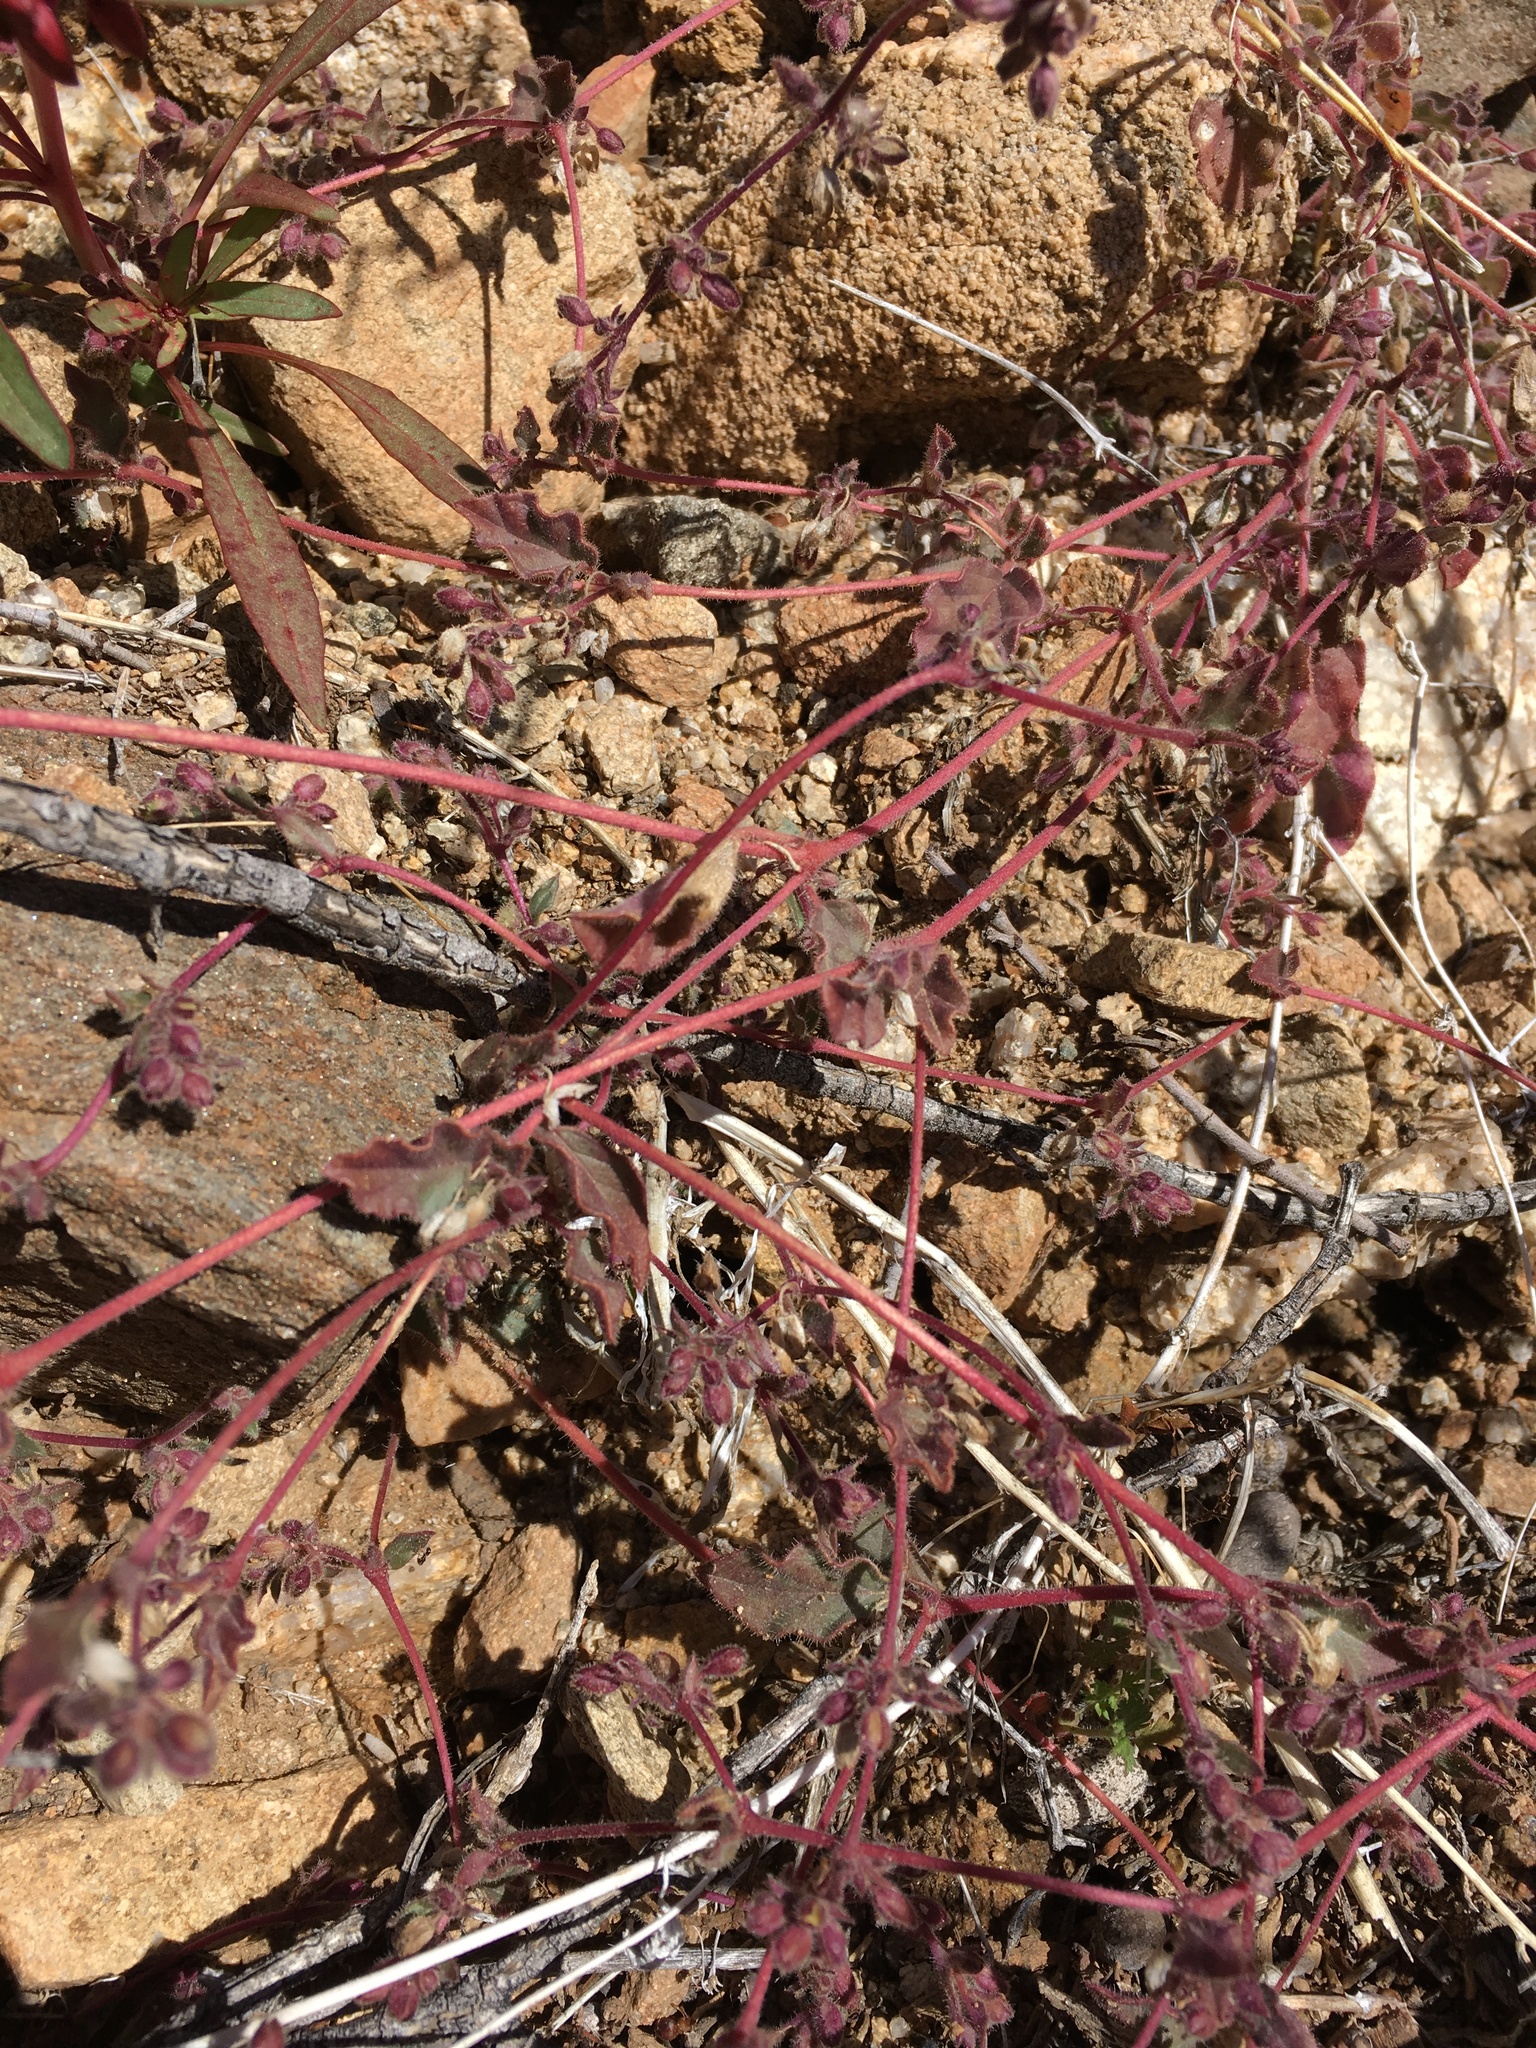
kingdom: Plantae
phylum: Tracheophyta
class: Magnoliopsida
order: Caryophyllales
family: Nyctaginaceae
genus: Allionia
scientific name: Allionia incarnata
